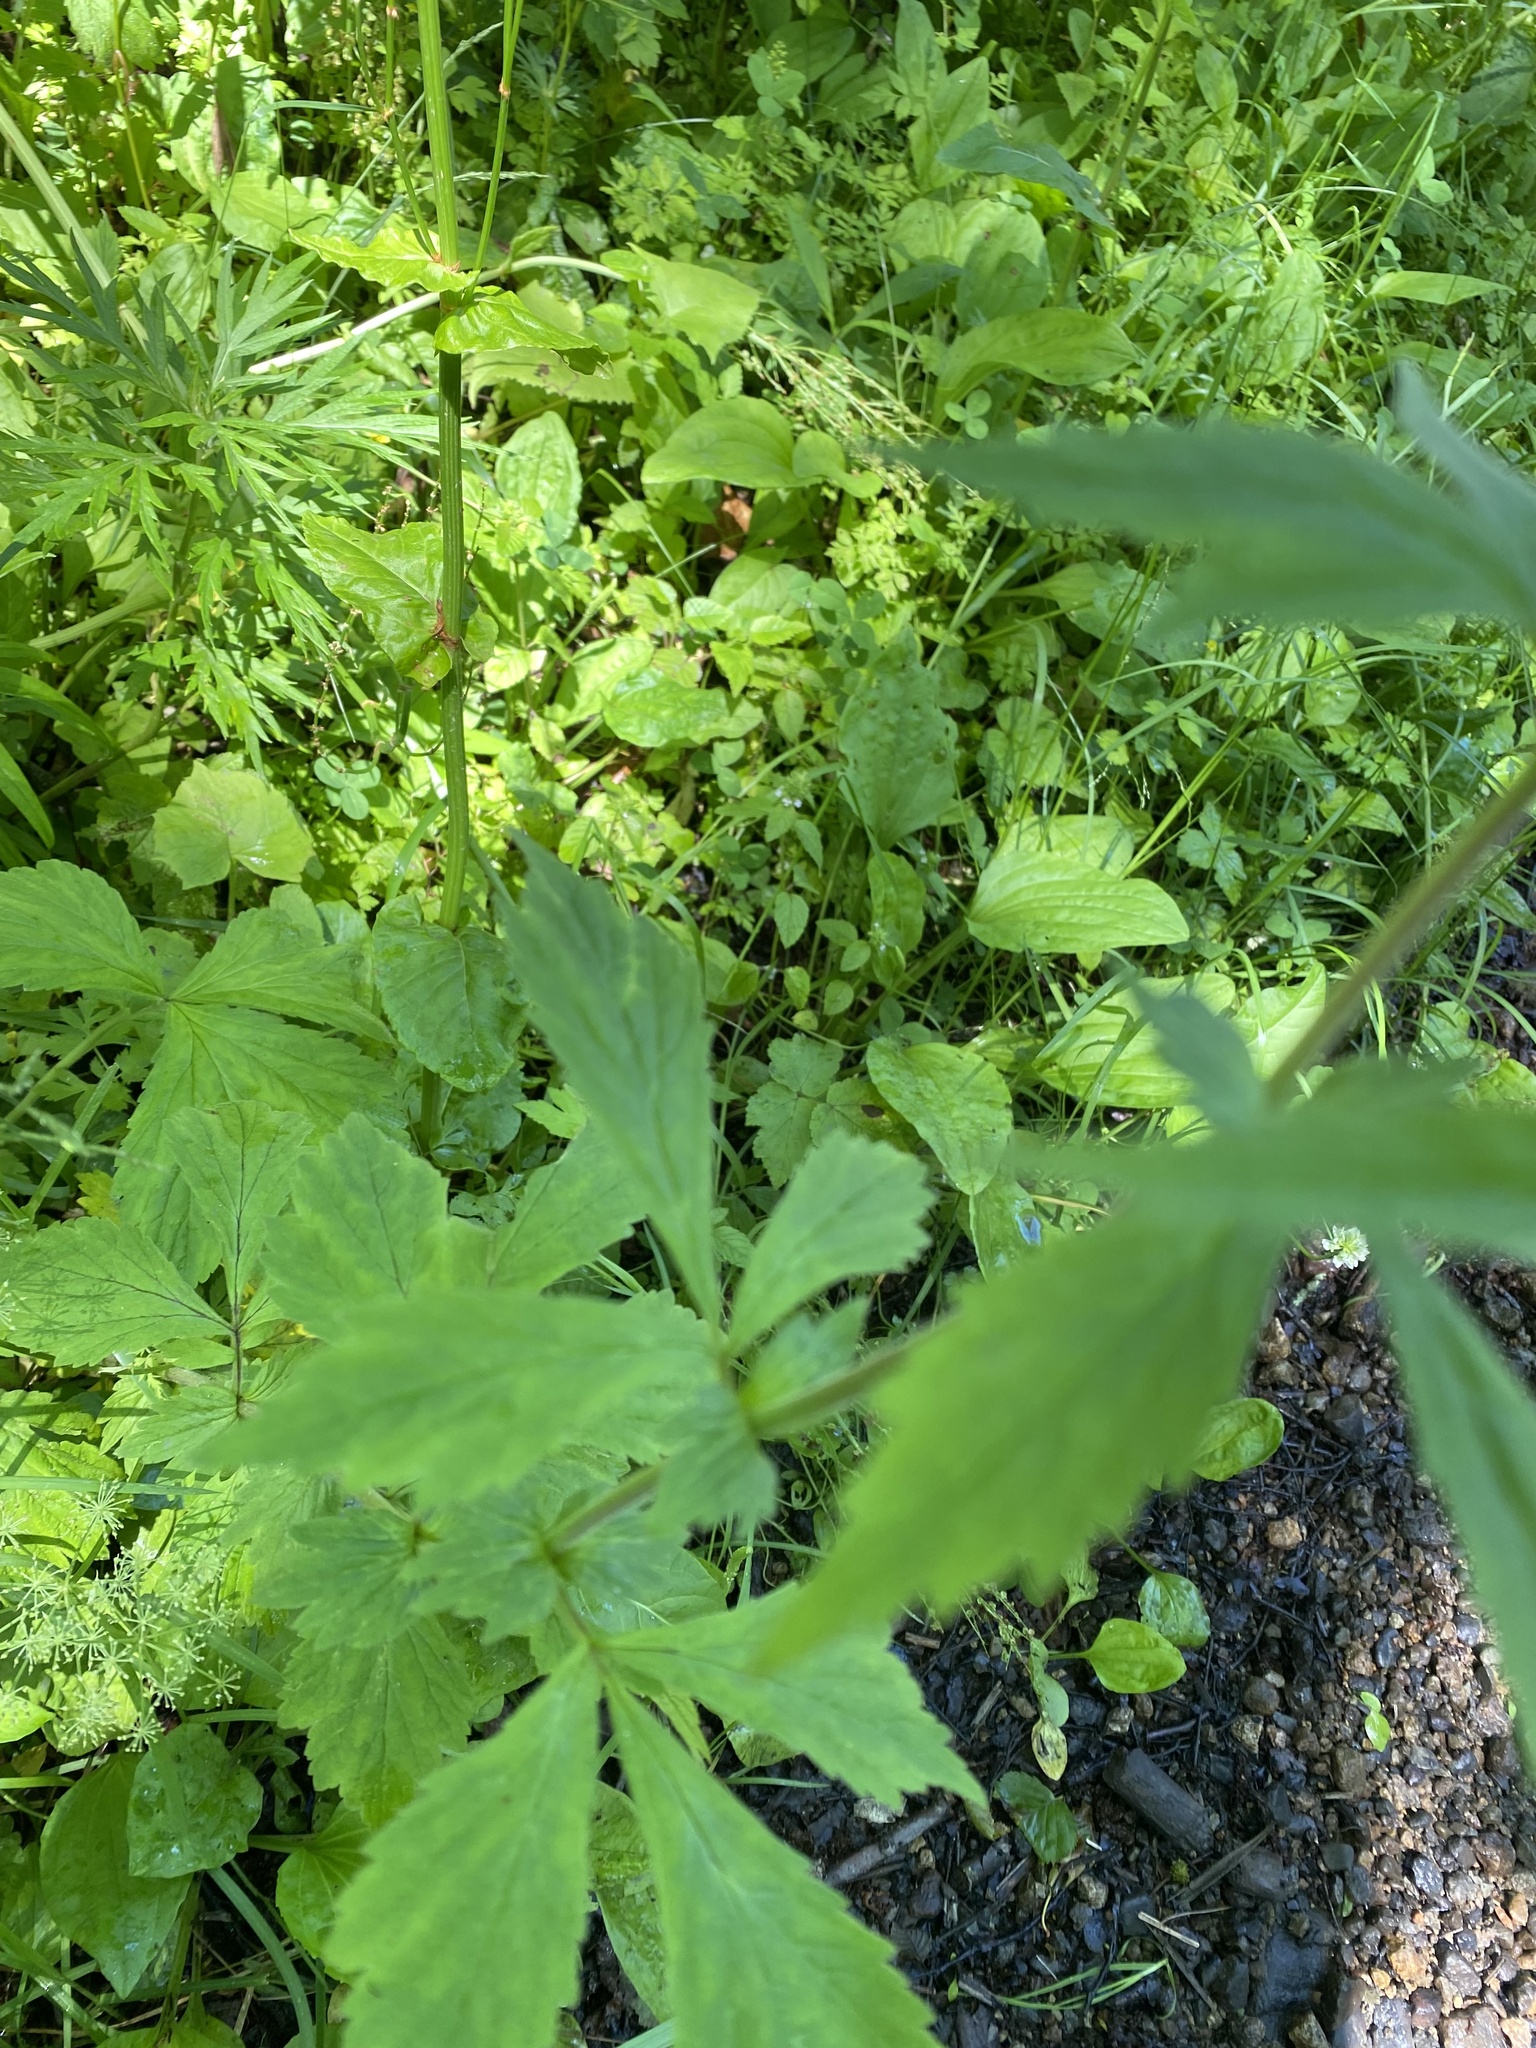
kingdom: Plantae
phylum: Tracheophyta
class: Magnoliopsida
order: Rosales
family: Rosaceae
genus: Geum
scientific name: Geum aleppicum
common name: Yellow avens
